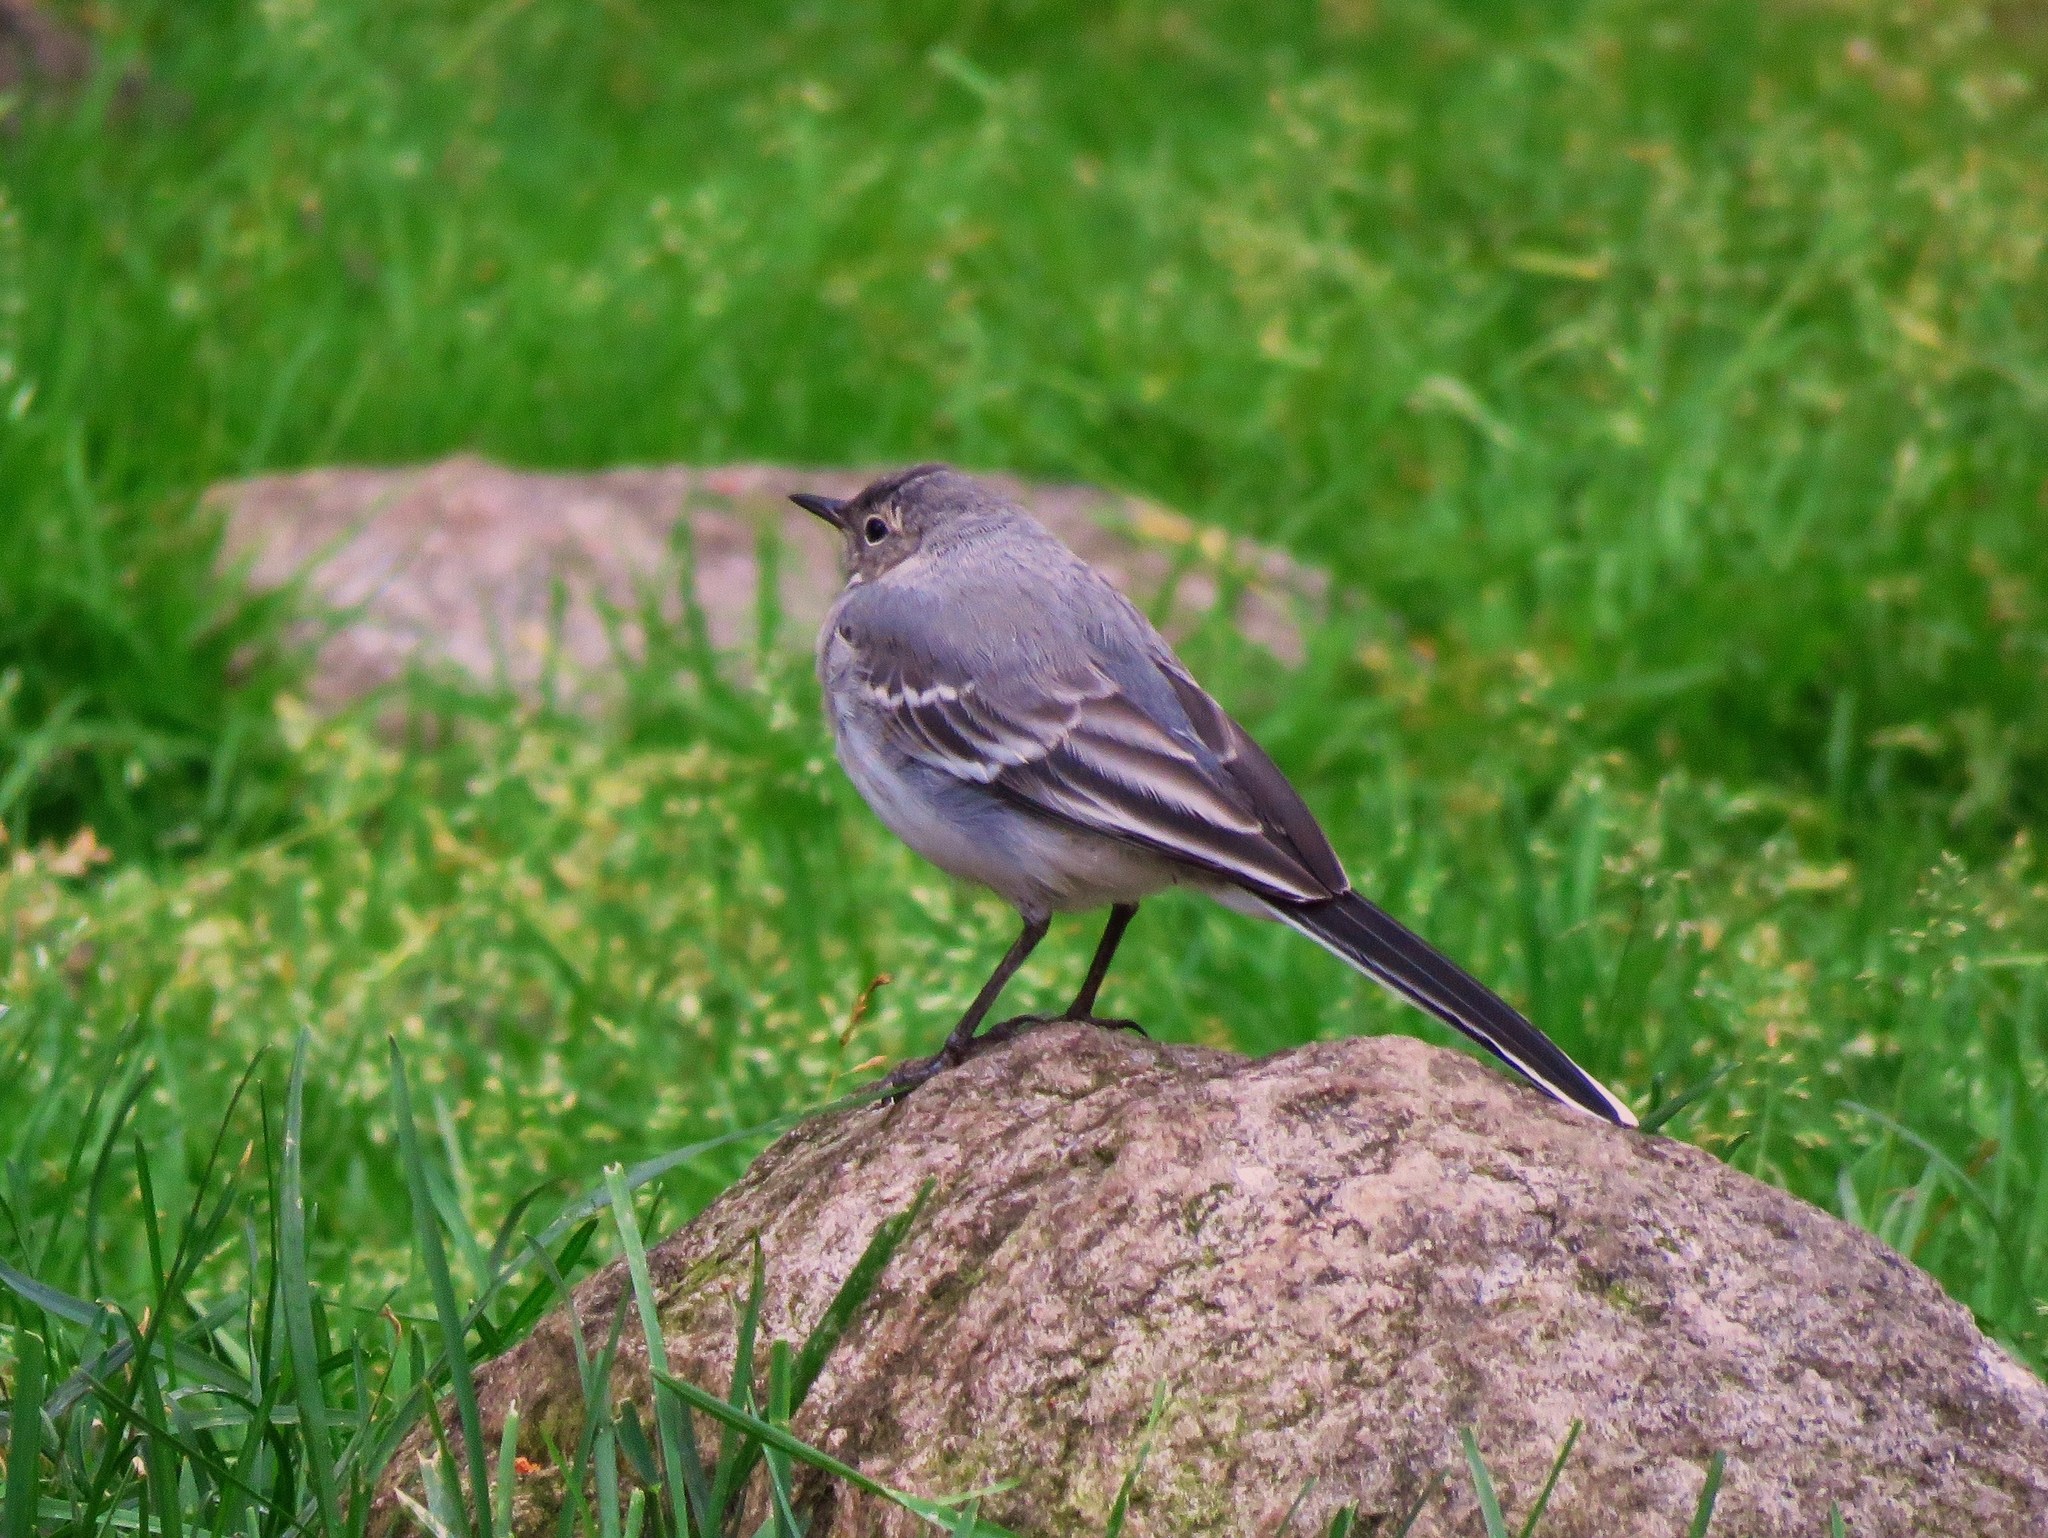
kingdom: Animalia
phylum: Chordata
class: Aves
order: Passeriformes
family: Motacillidae
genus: Motacilla
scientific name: Motacilla alba
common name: White wagtail
